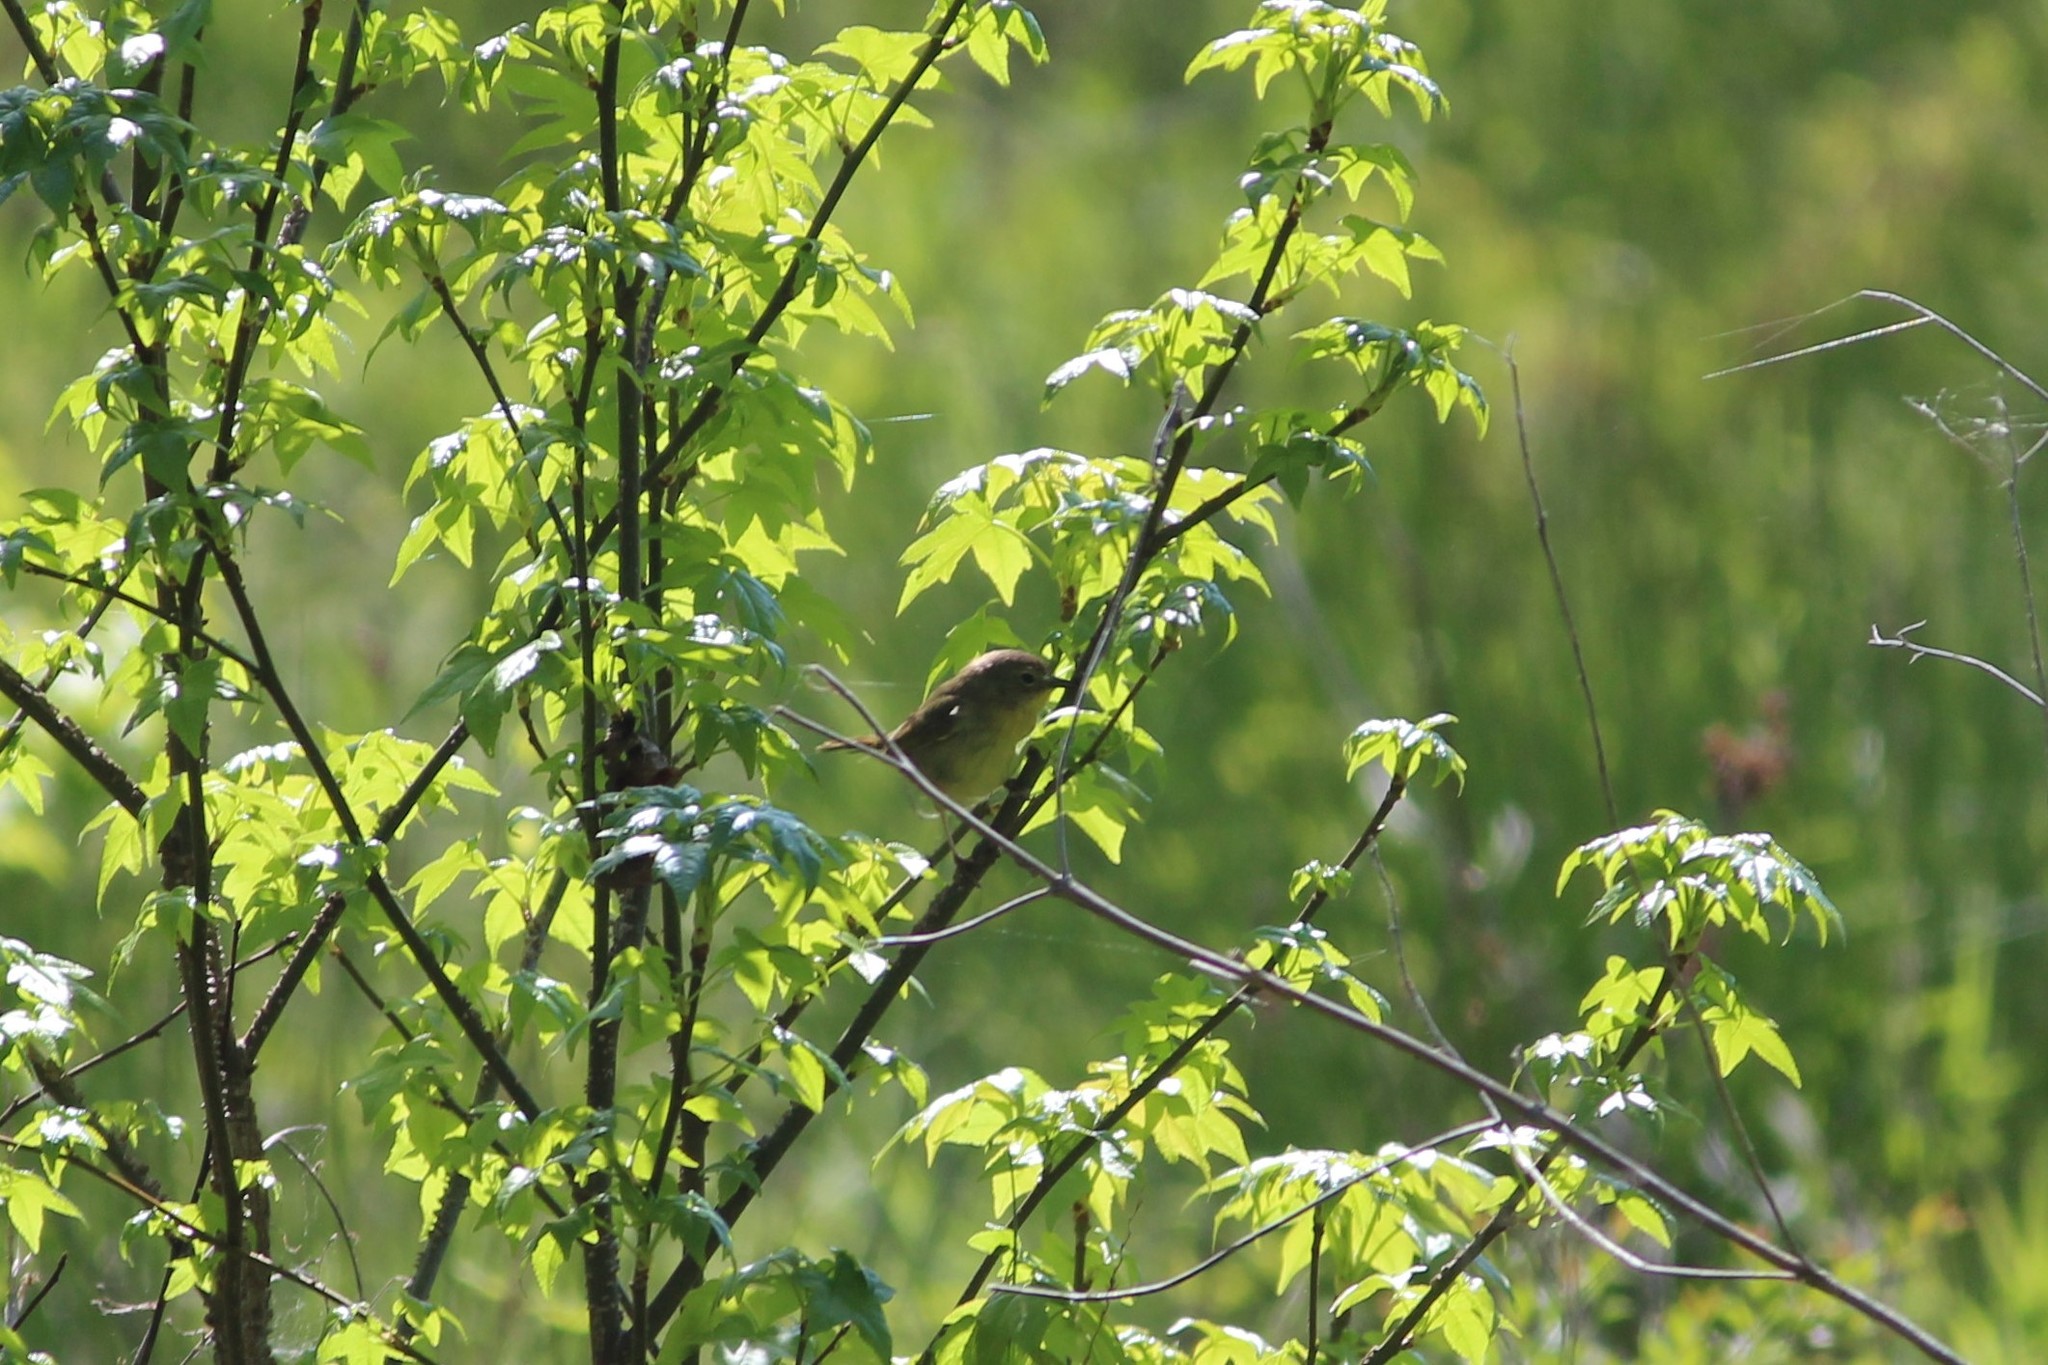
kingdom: Animalia
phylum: Chordata
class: Aves
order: Passeriformes
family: Parulidae
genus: Geothlypis
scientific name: Geothlypis trichas
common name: Common yellowthroat
